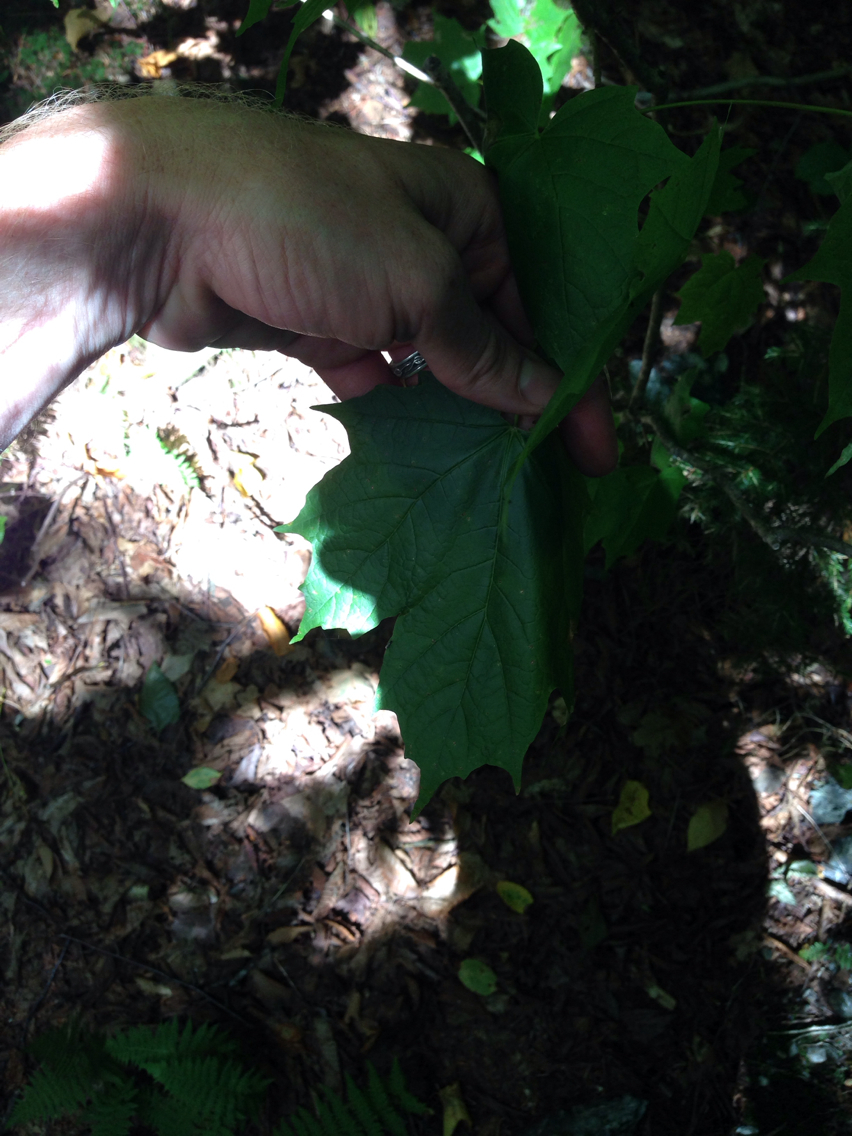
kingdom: Plantae
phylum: Tracheophyta
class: Magnoliopsida
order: Sapindales
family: Sapindaceae
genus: Acer
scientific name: Acer saccharum
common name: Sugar maple
